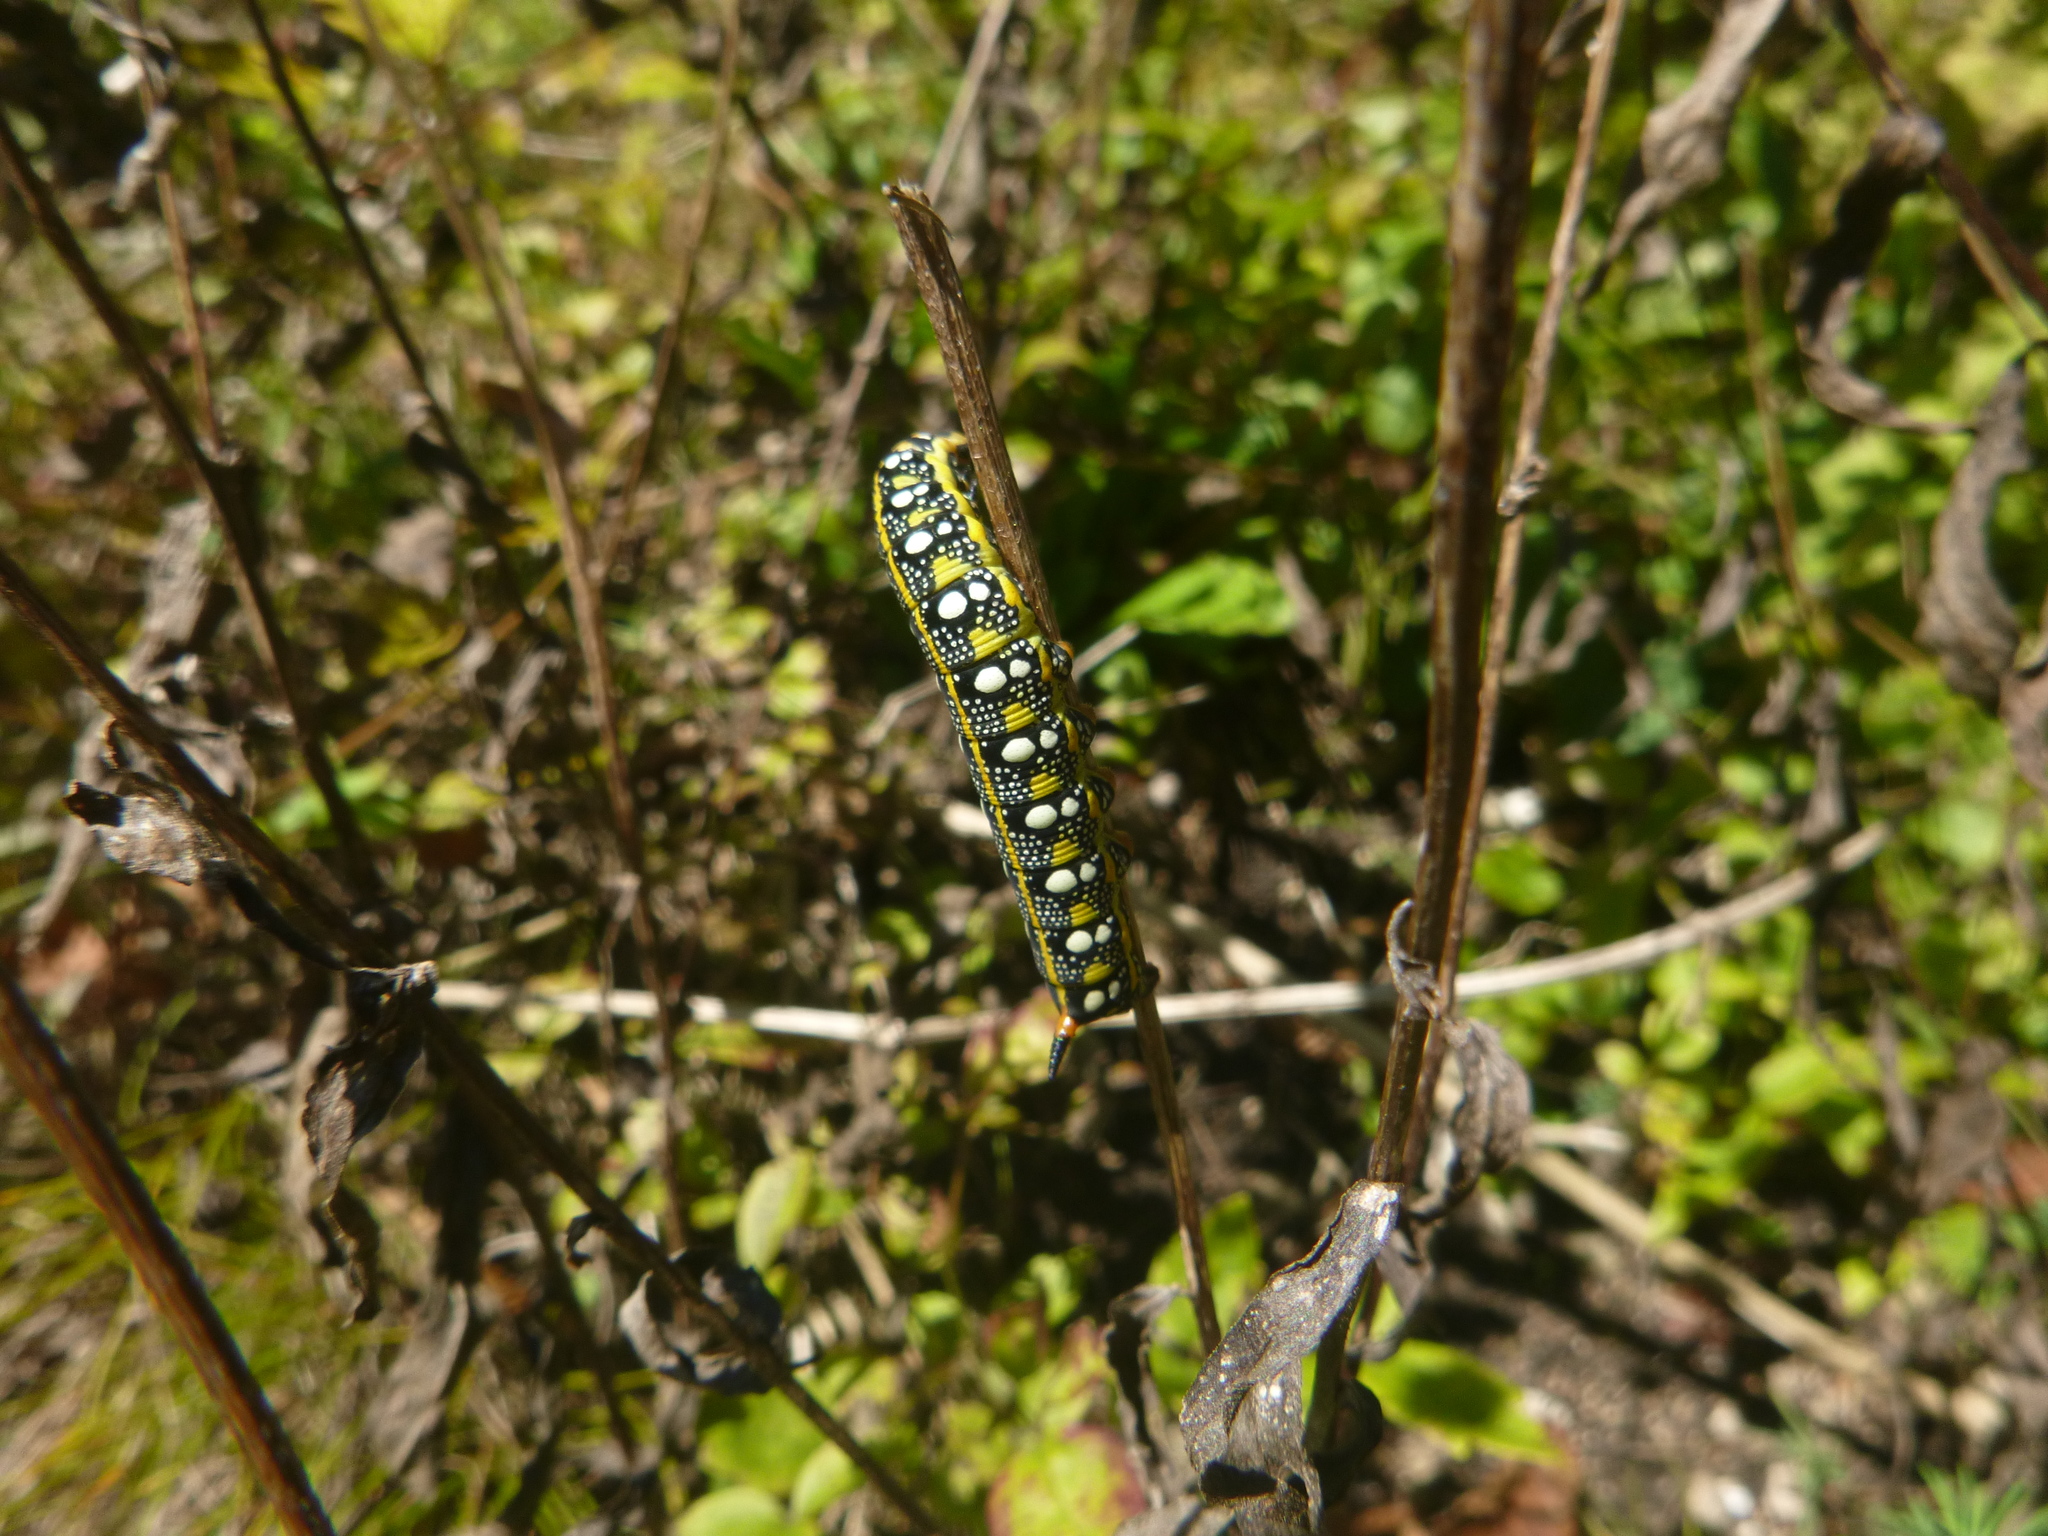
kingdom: Animalia
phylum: Arthropoda
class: Insecta
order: Lepidoptera
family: Sphingidae
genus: Hyles
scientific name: Hyles euphorbiae
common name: Spurge hawk-moth
